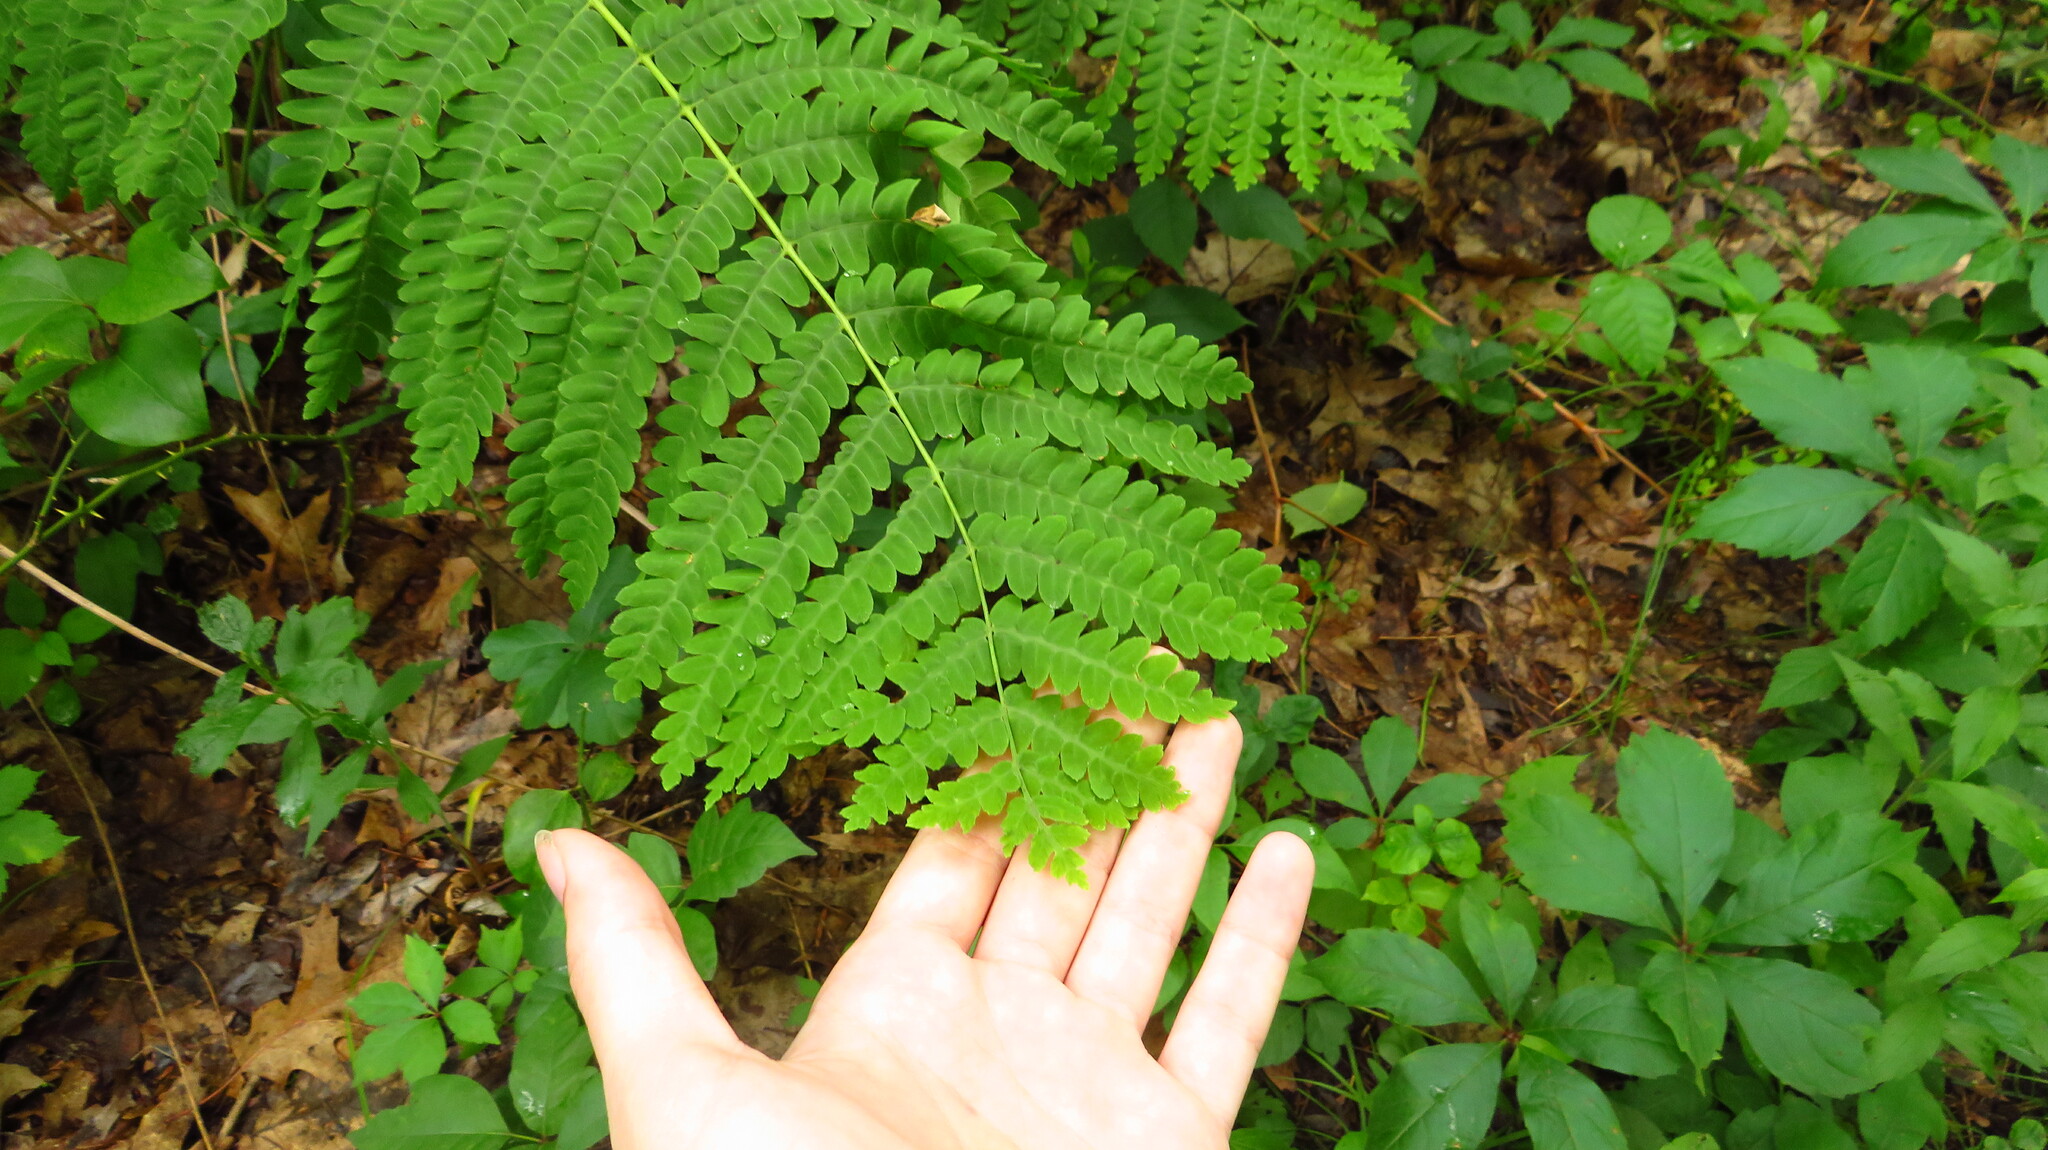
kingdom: Plantae
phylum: Tracheophyta
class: Polypodiopsida
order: Osmundales
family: Osmundaceae
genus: Claytosmunda
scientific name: Claytosmunda claytoniana
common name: Clayton's fern
